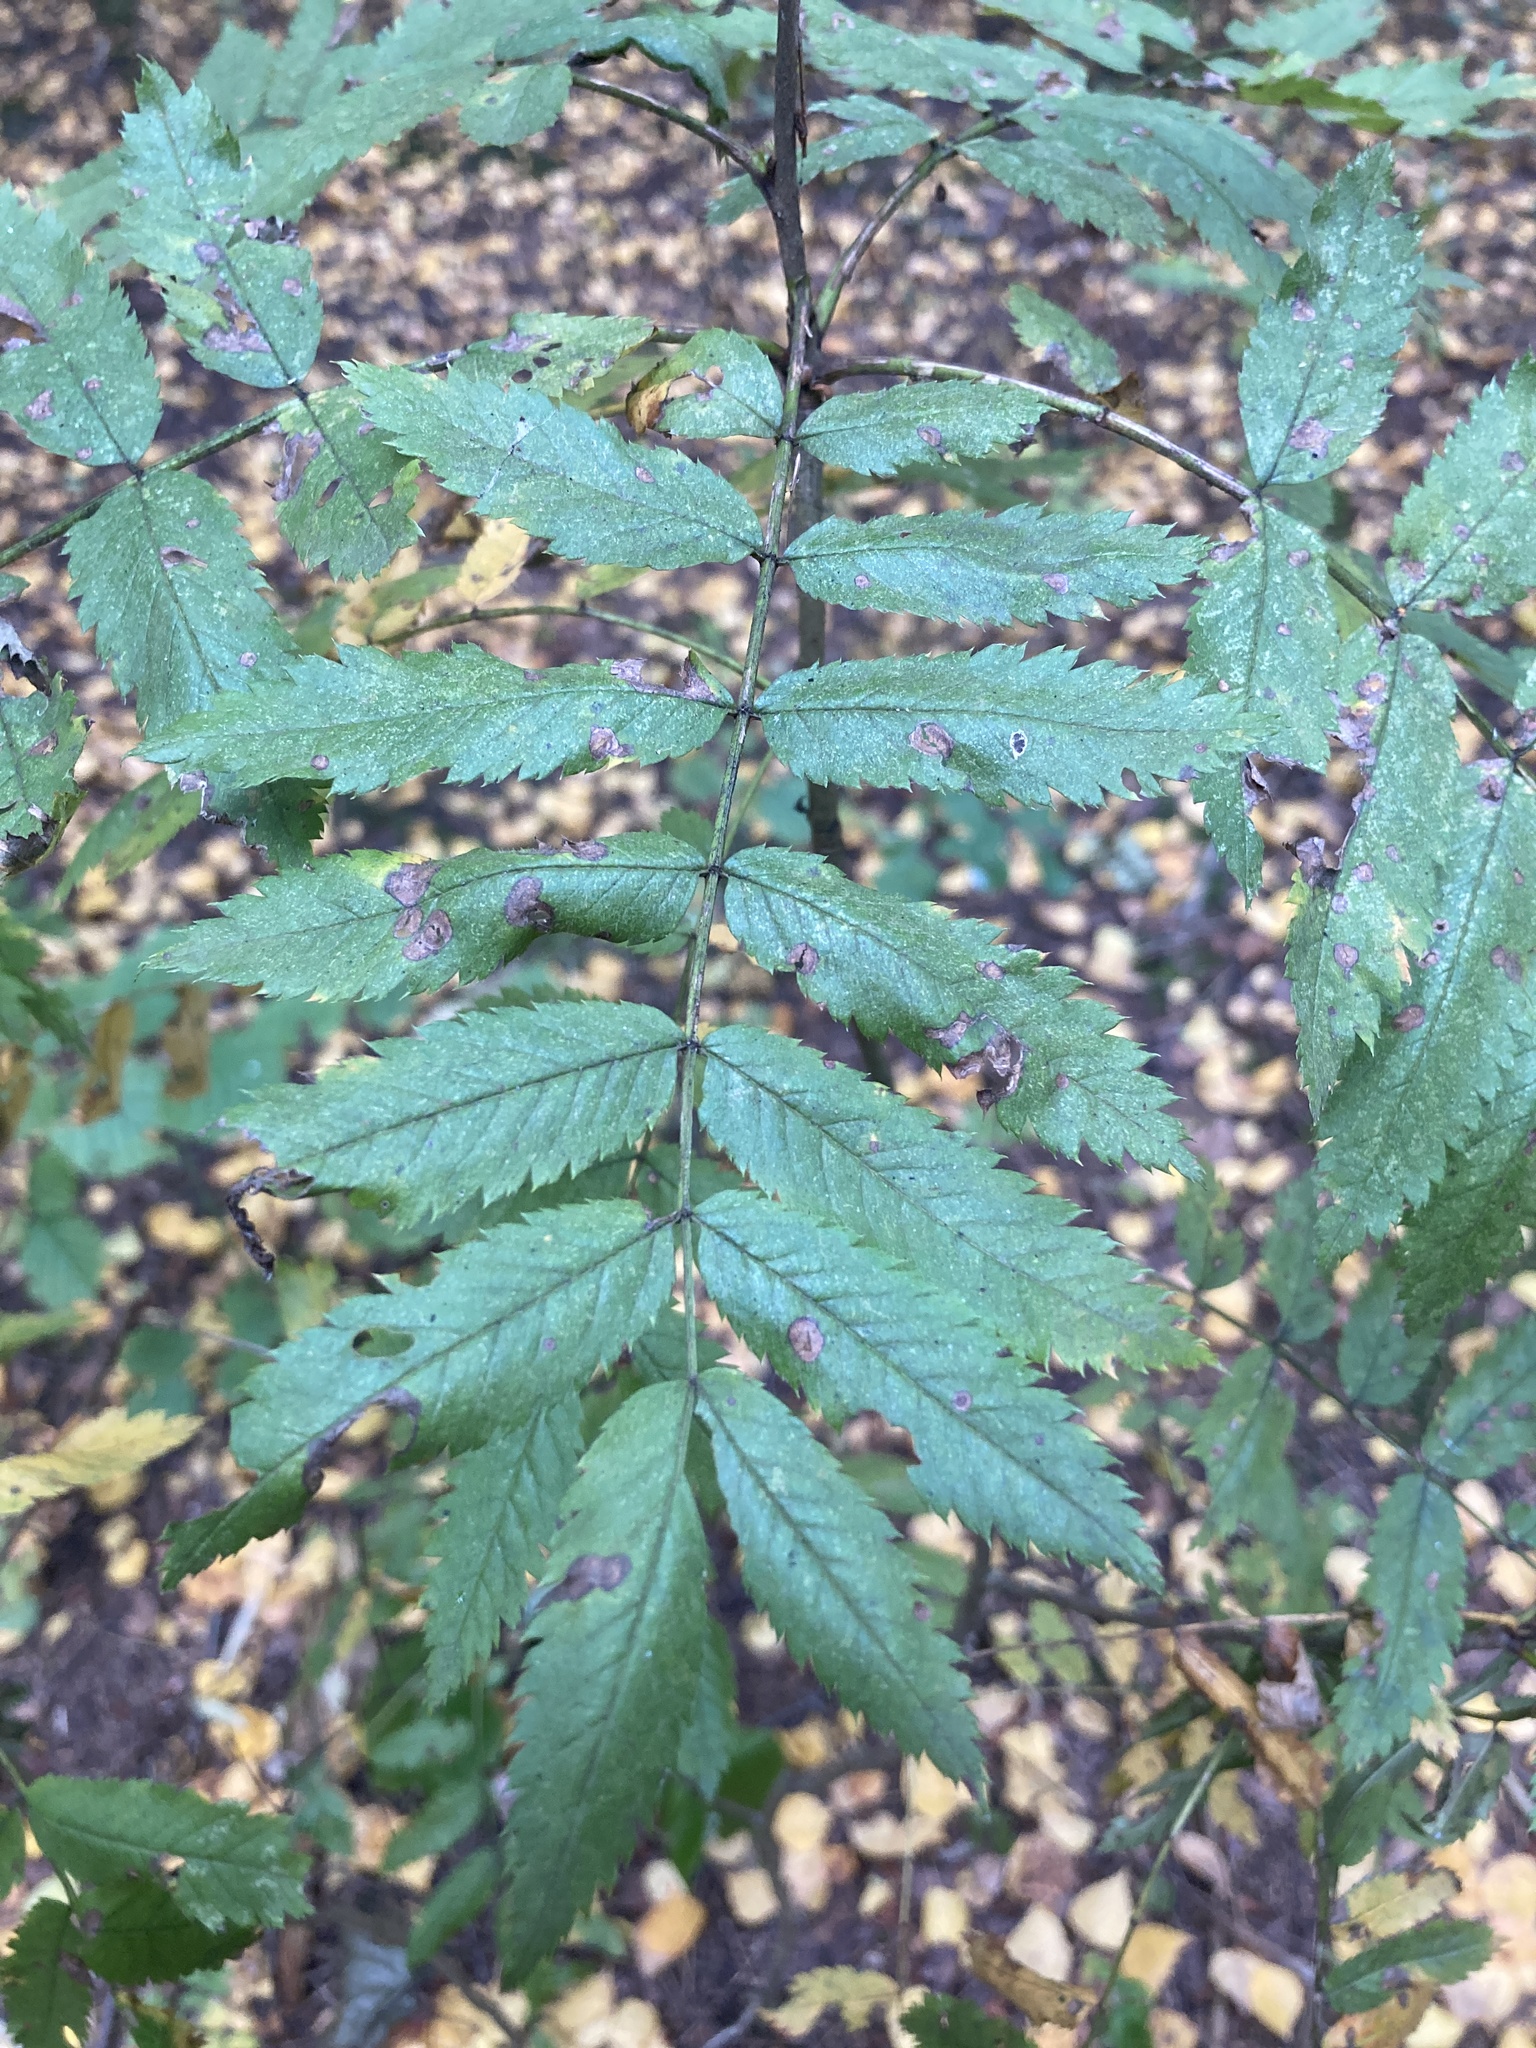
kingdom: Plantae
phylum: Tracheophyta
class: Magnoliopsida
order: Rosales
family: Rosaceae
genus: Sorbus
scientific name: Sorbus aucuparia
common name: Rowan
